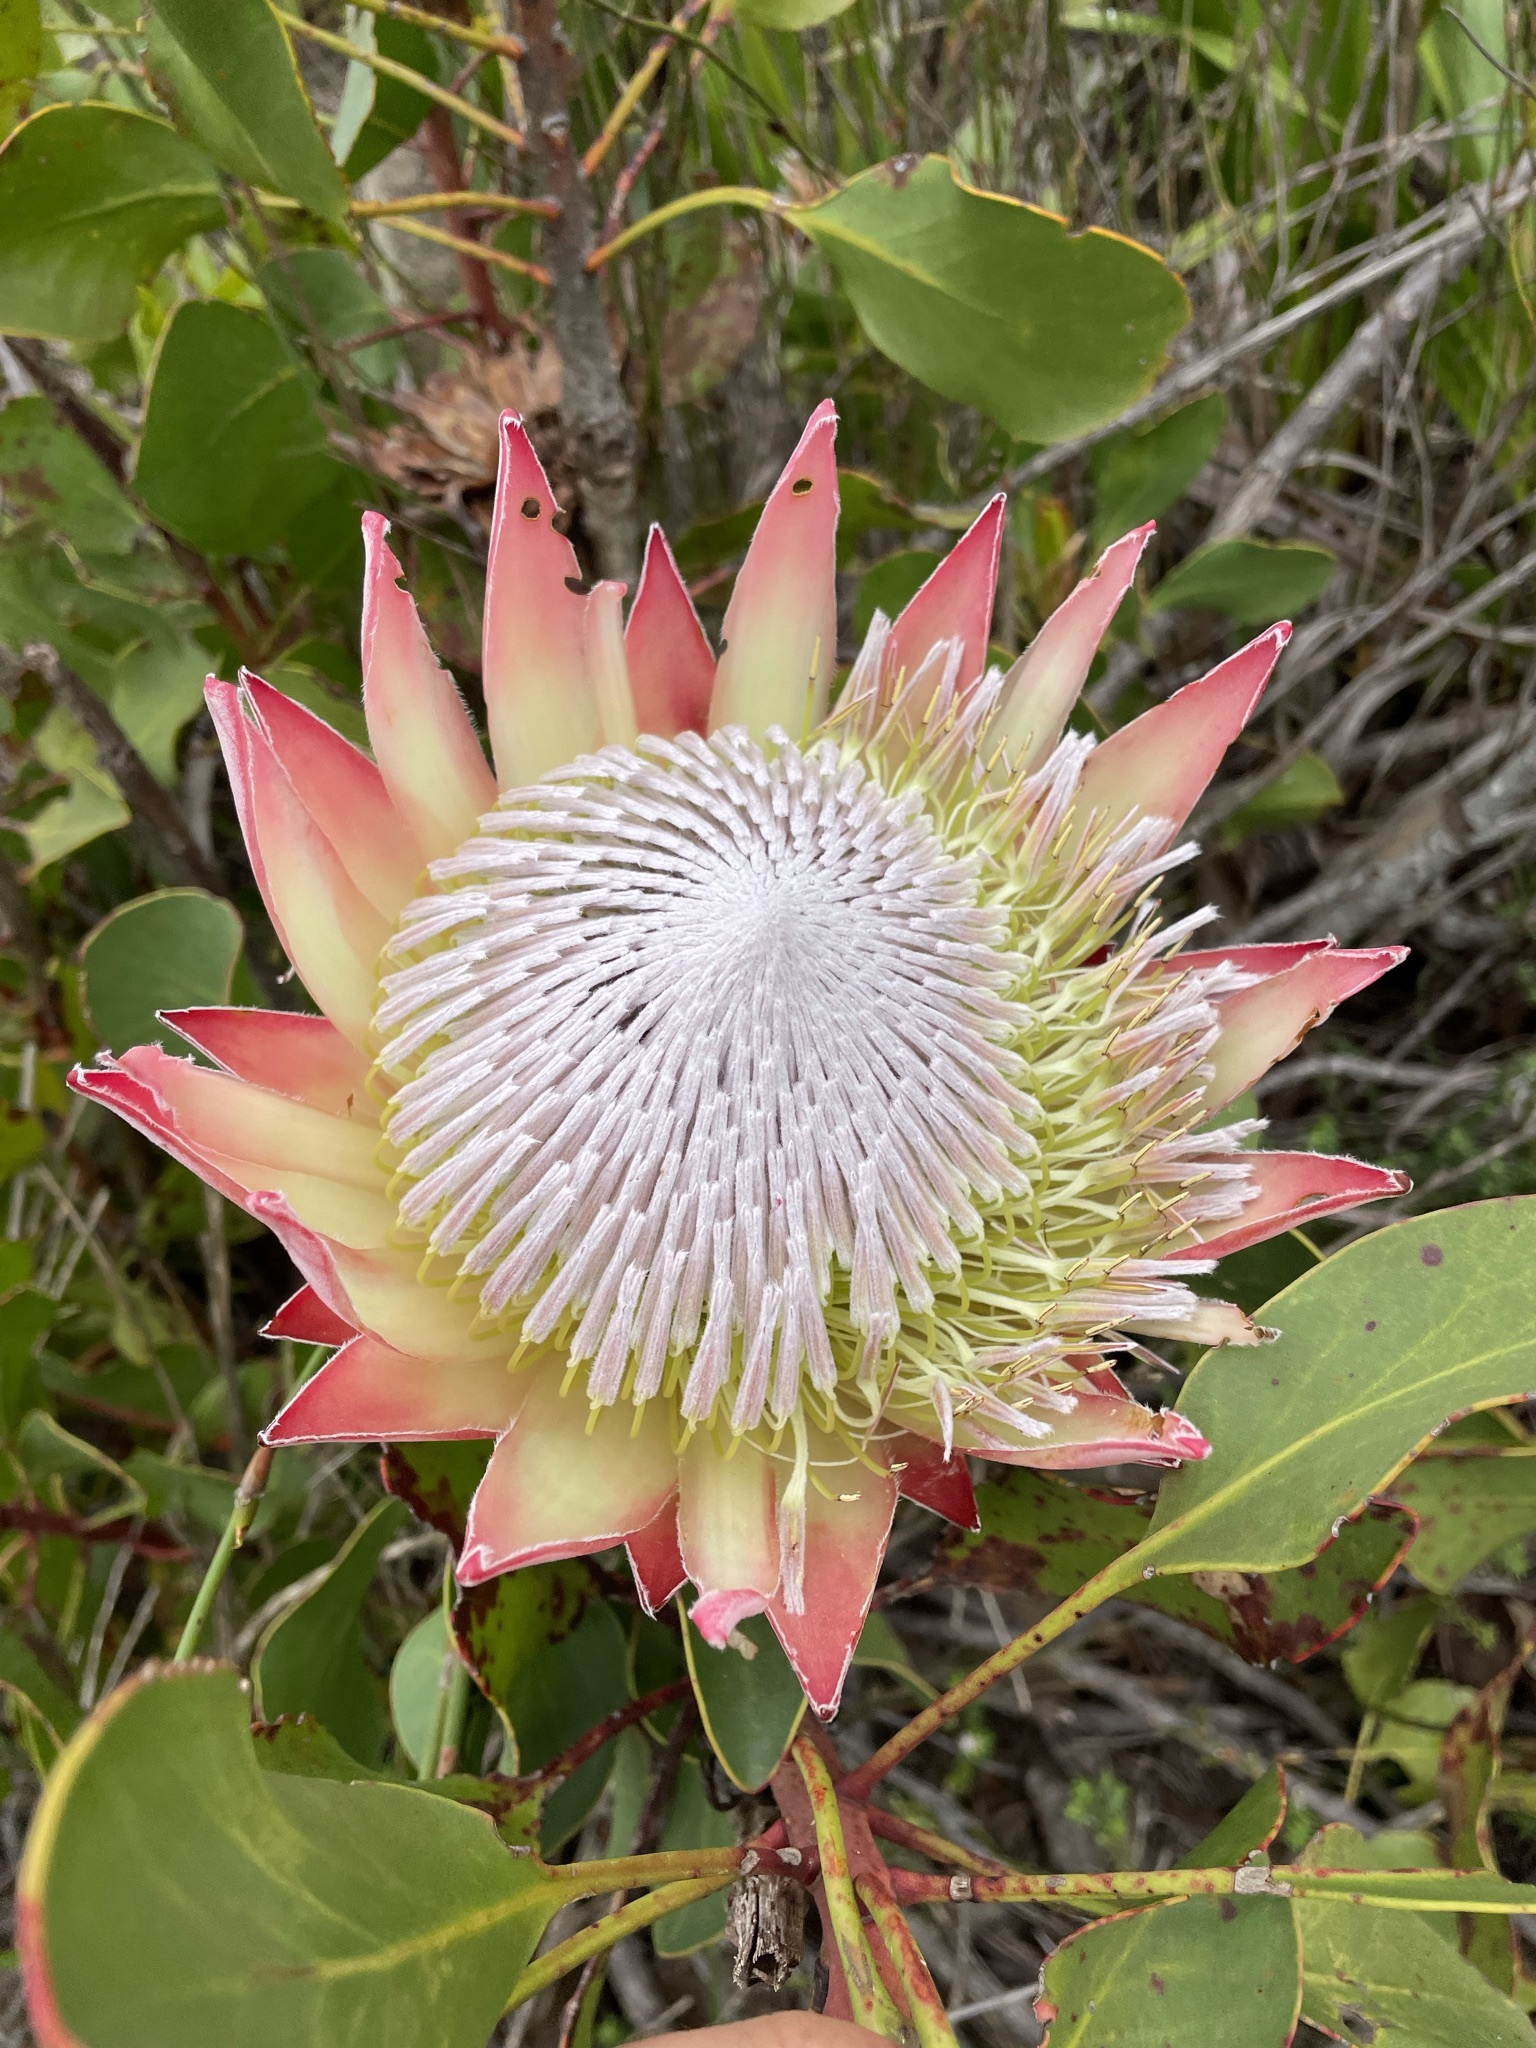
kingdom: Plantae
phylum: Tracheophyta
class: Magnoliopsida
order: Proteales
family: Proteaceae
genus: Protea
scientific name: Protea cynaroides
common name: King protea
